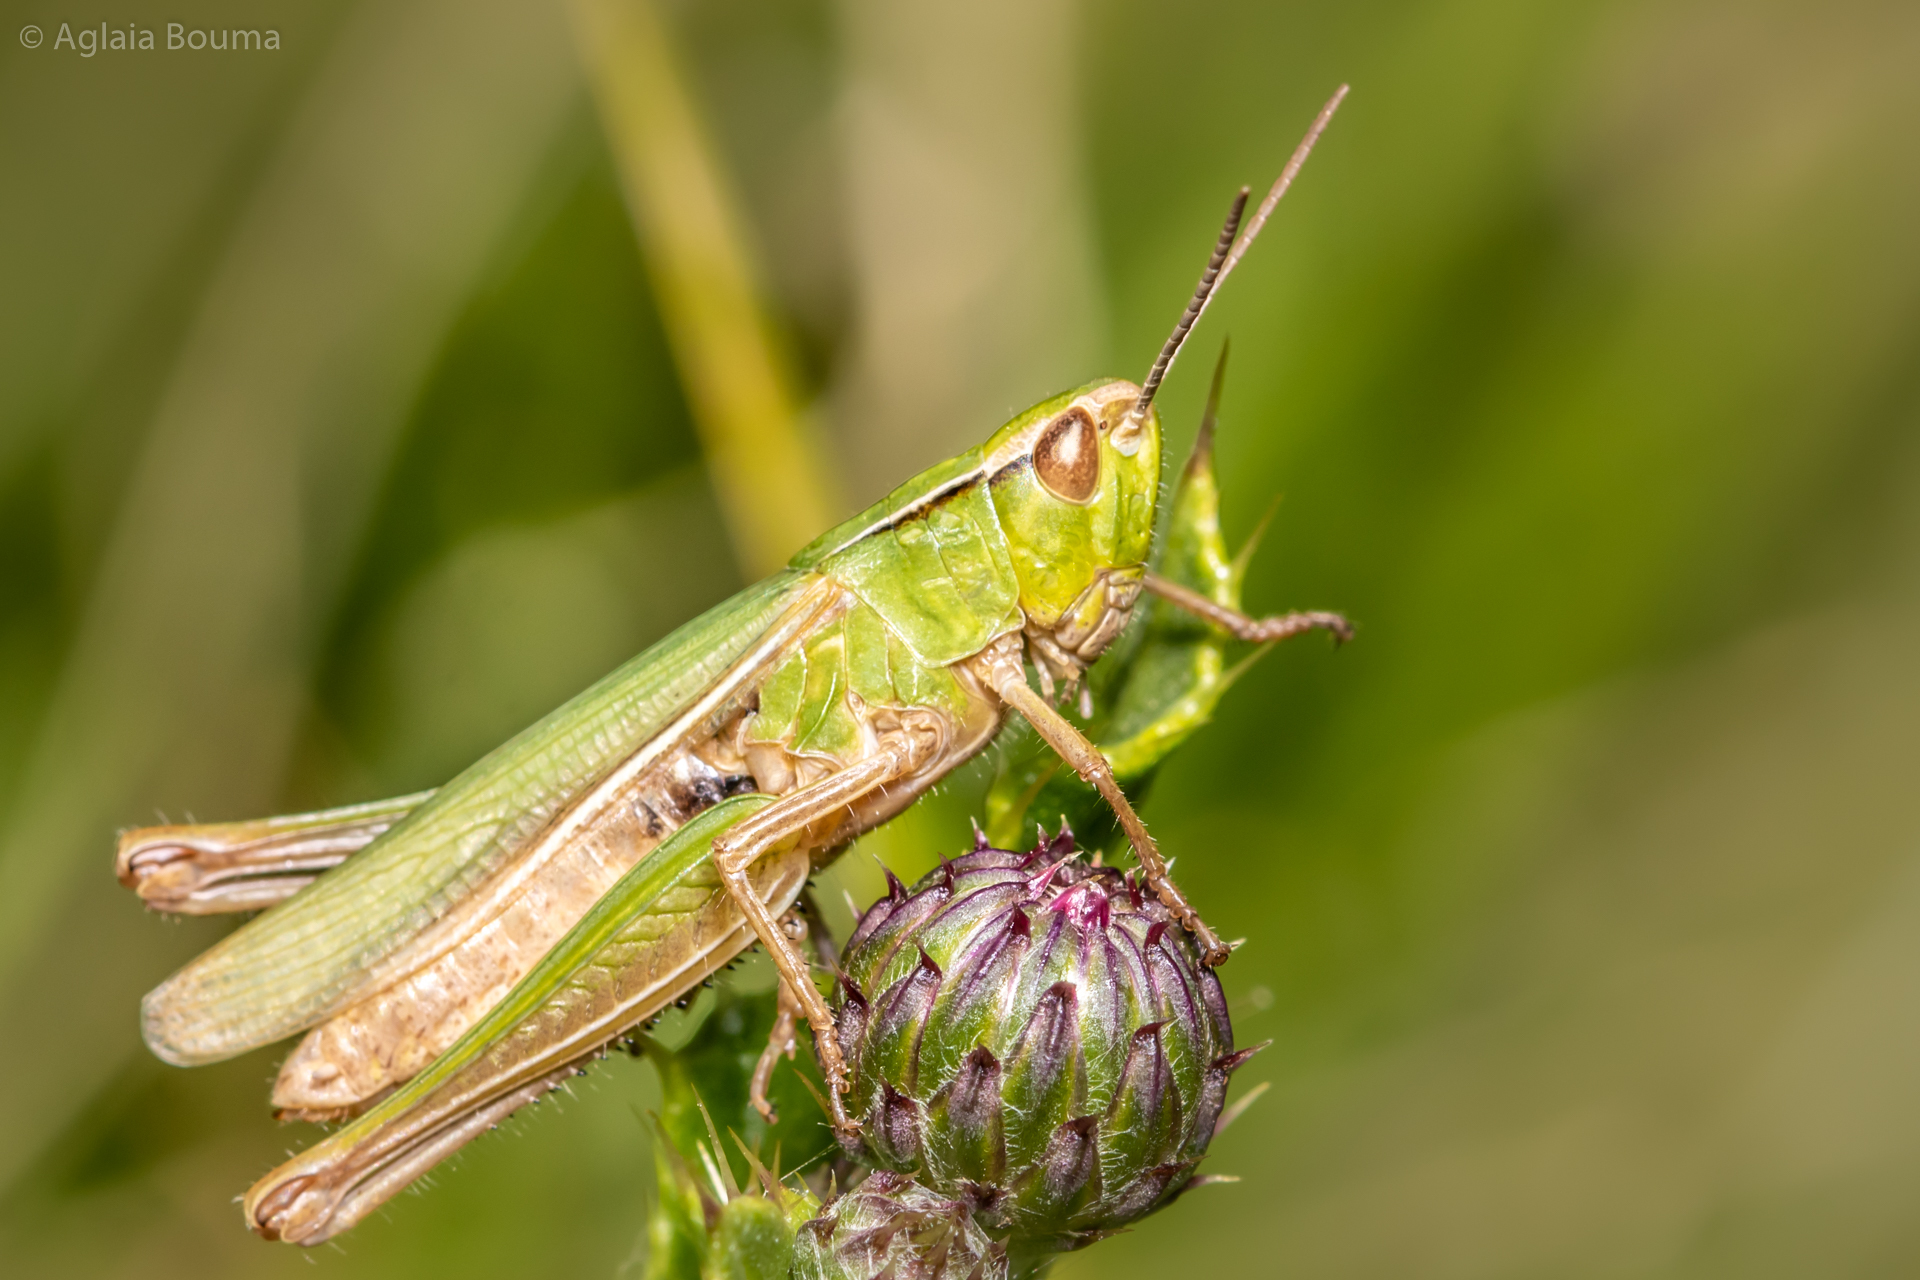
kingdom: Animalia
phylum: Arthropoda
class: Insecta
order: Orthoptera
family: Acrididae
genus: Chorthippus
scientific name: Chorthippus albomarginatus
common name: Lesser marsh grasshopper
